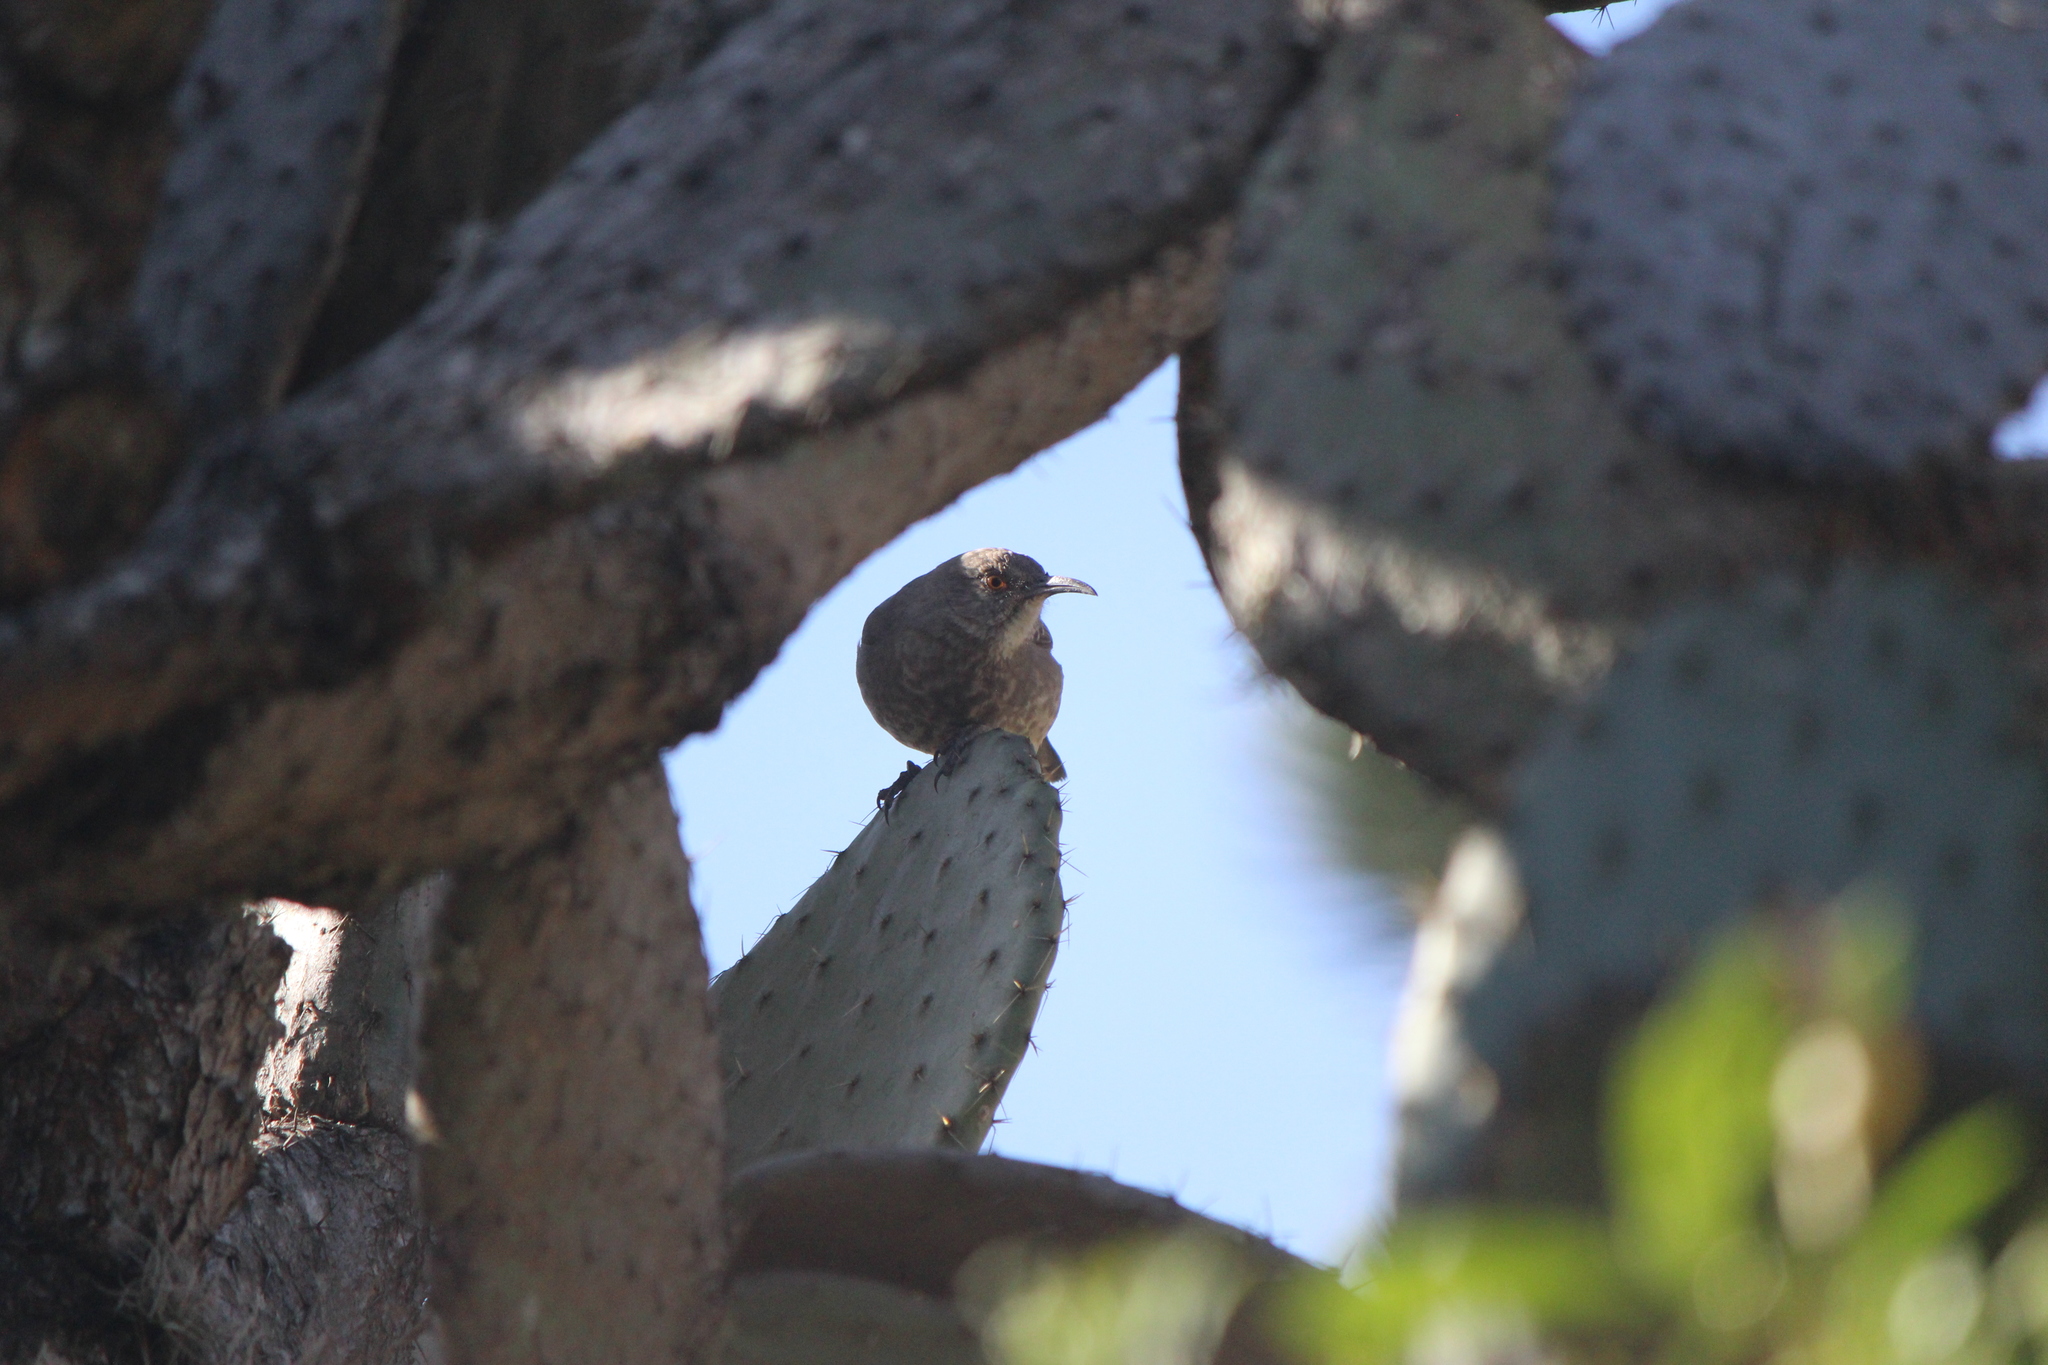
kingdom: Animalia
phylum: Chordata
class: Aves
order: Passeriformes
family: Mimidae
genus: Toxostoma
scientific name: Toxostoma curvirostre
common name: Curve-billed thrasher
